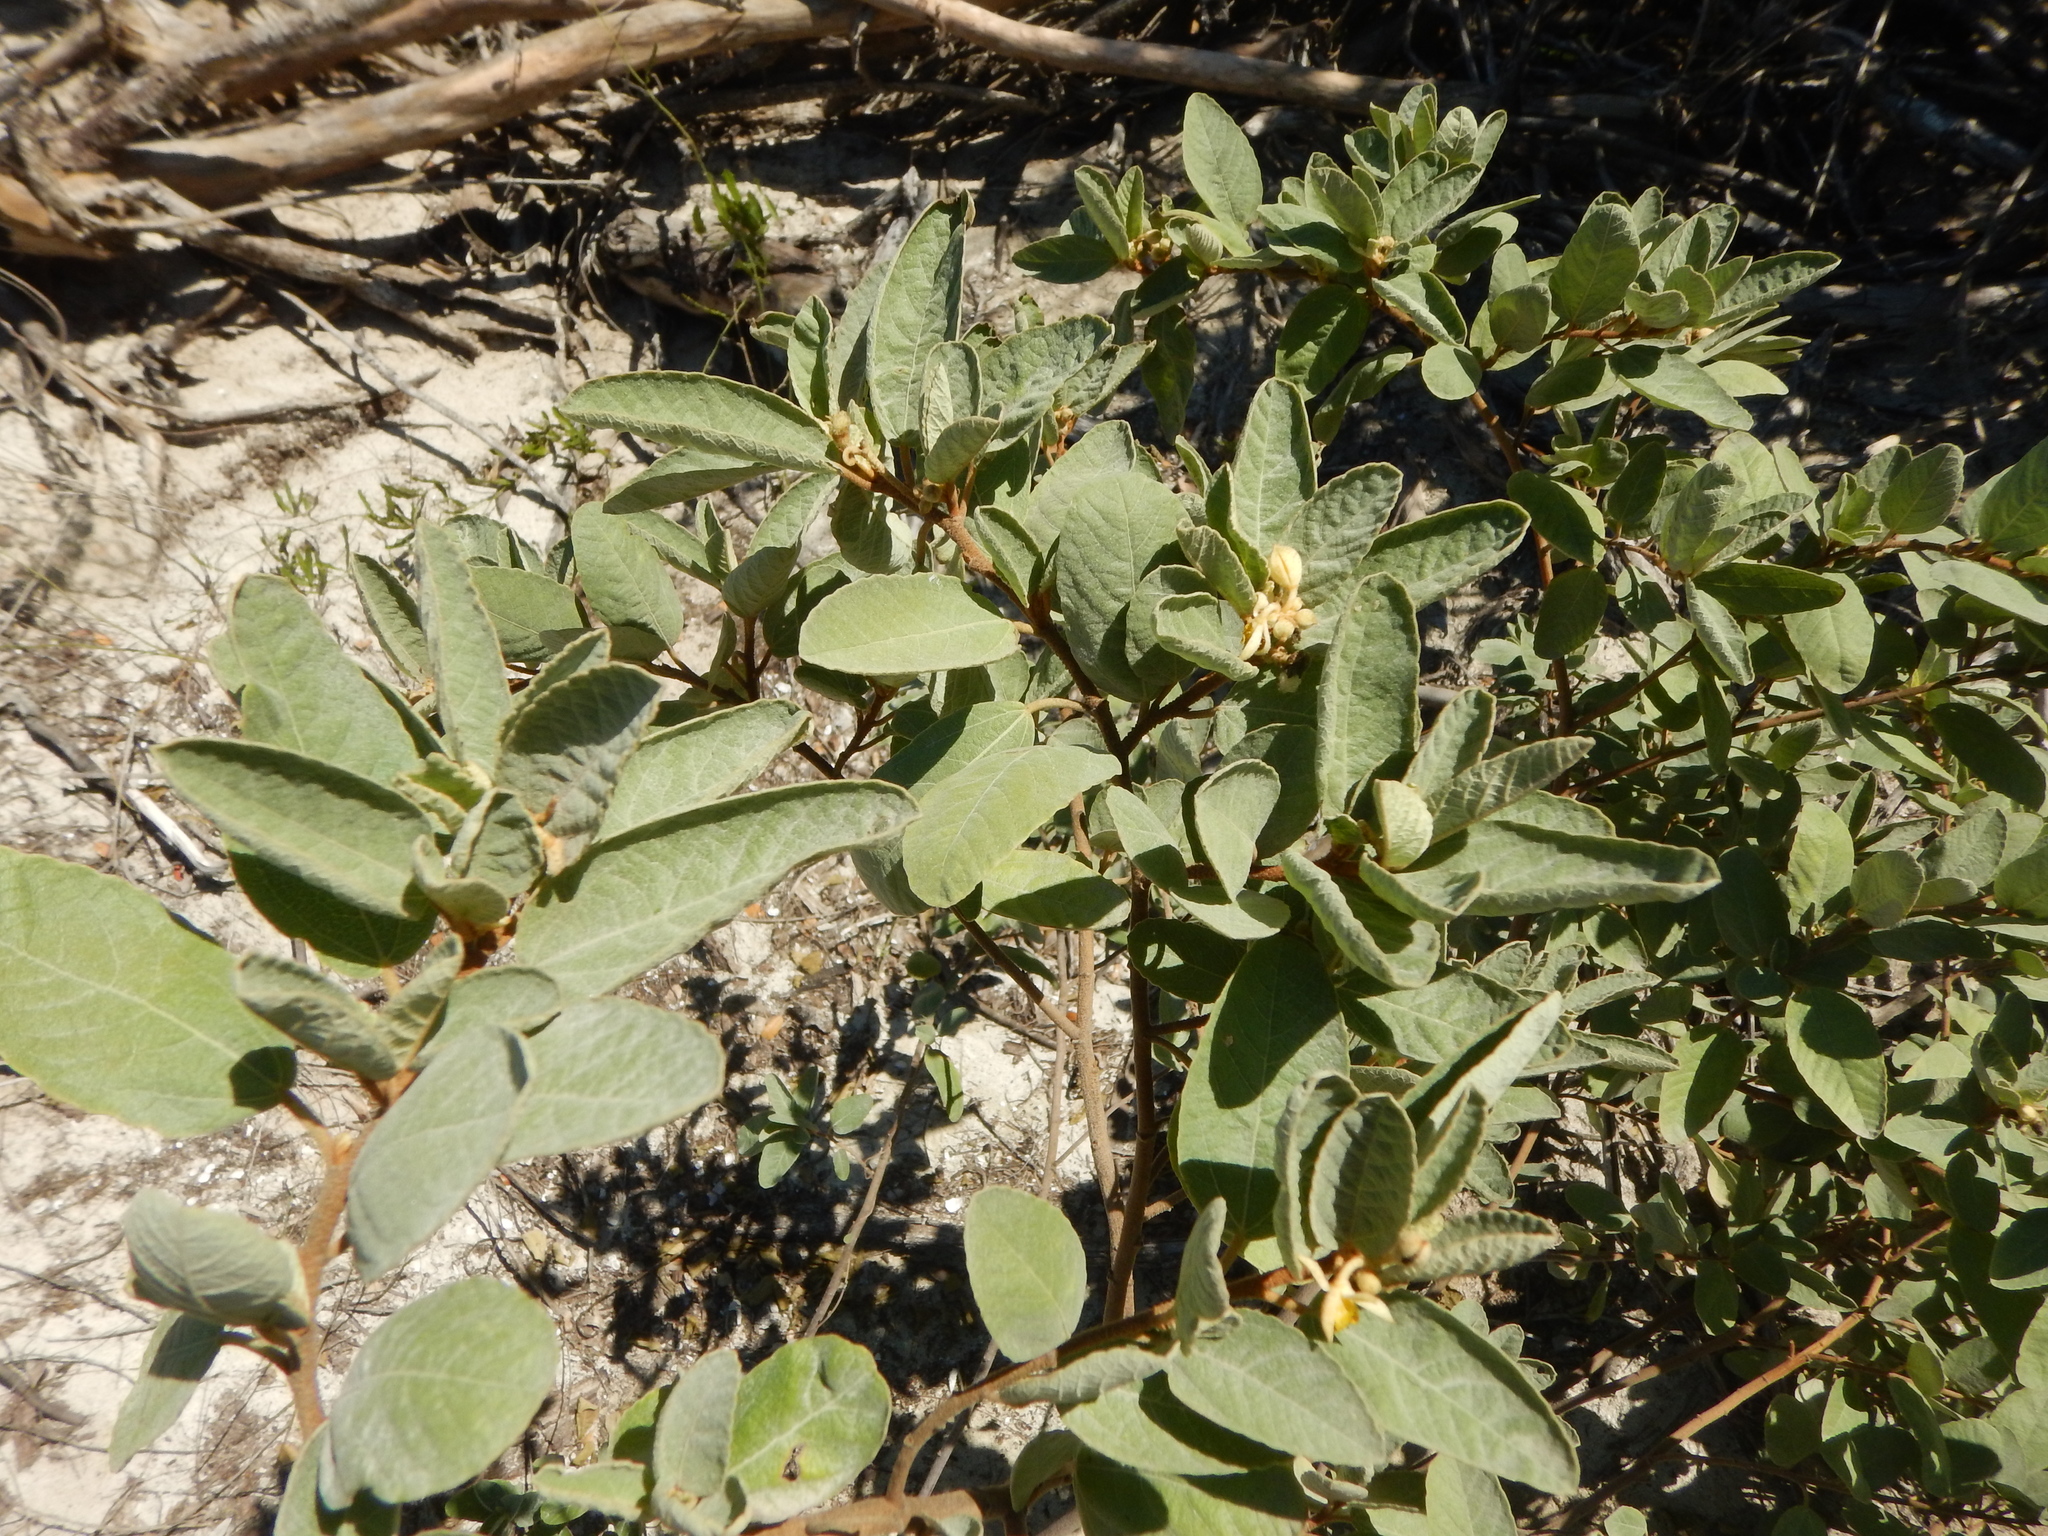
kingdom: Plantae
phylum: Tracheophyta
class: Magnoliopsida
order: Malvales
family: Malvaceae
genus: Corchorus
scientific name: Corchorus hirsutus
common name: Jackswitch
